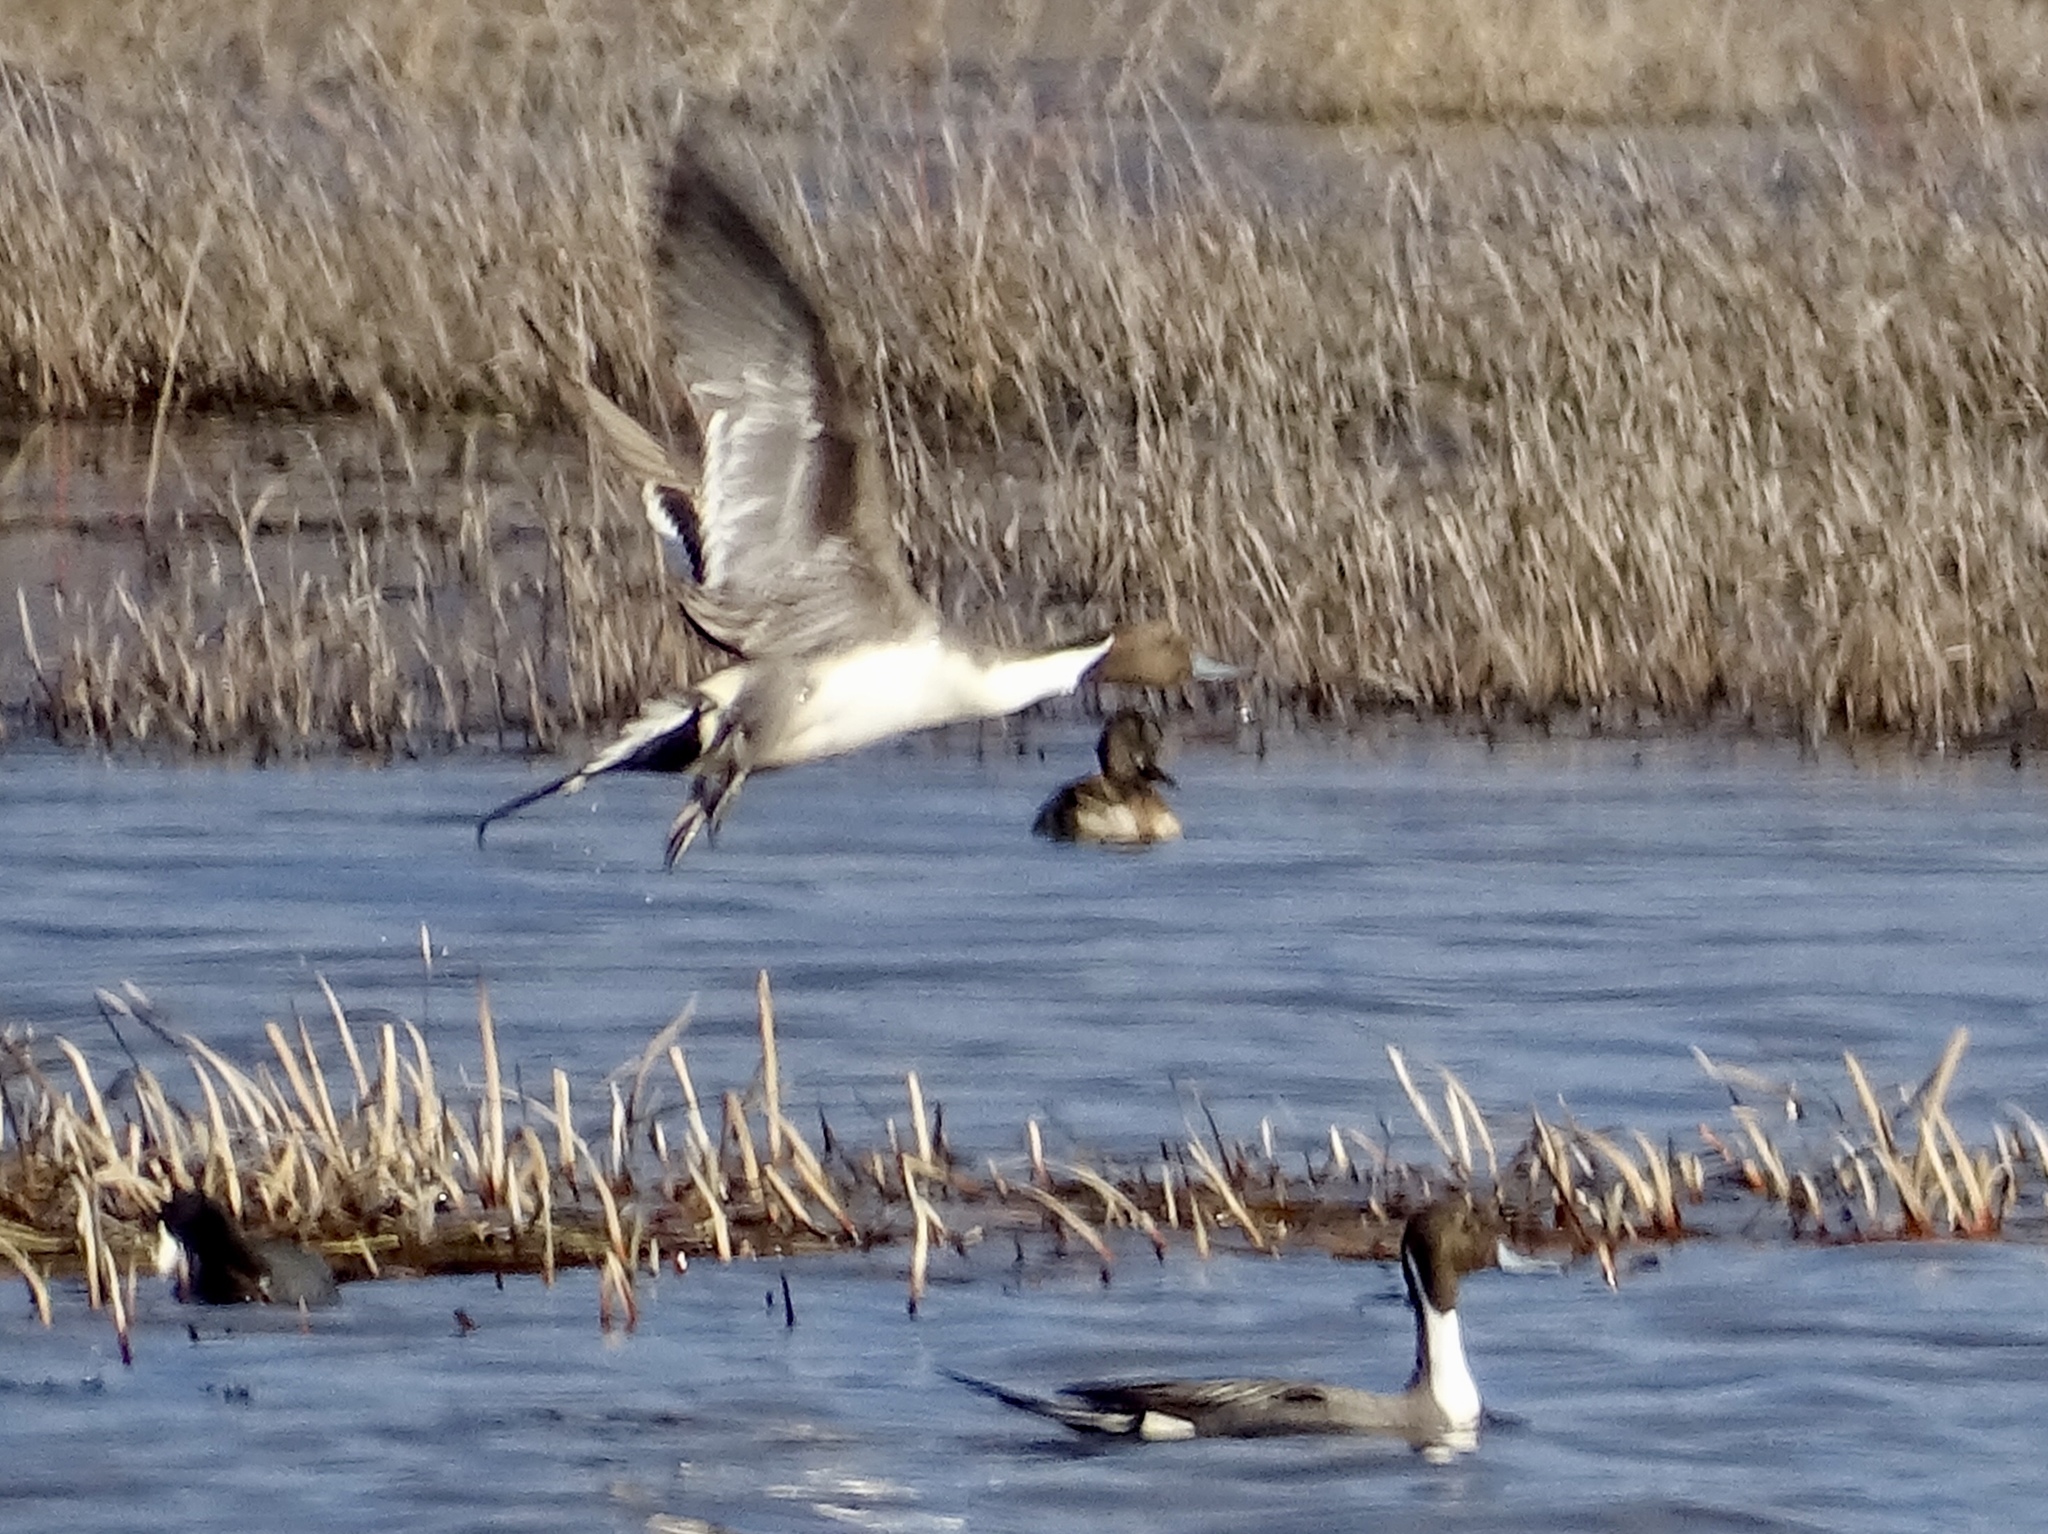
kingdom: Animalia
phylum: Chordata
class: Aves
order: Anseriformes
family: Anatidae
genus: Anas
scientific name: Anas acuta
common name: Northern pintail
